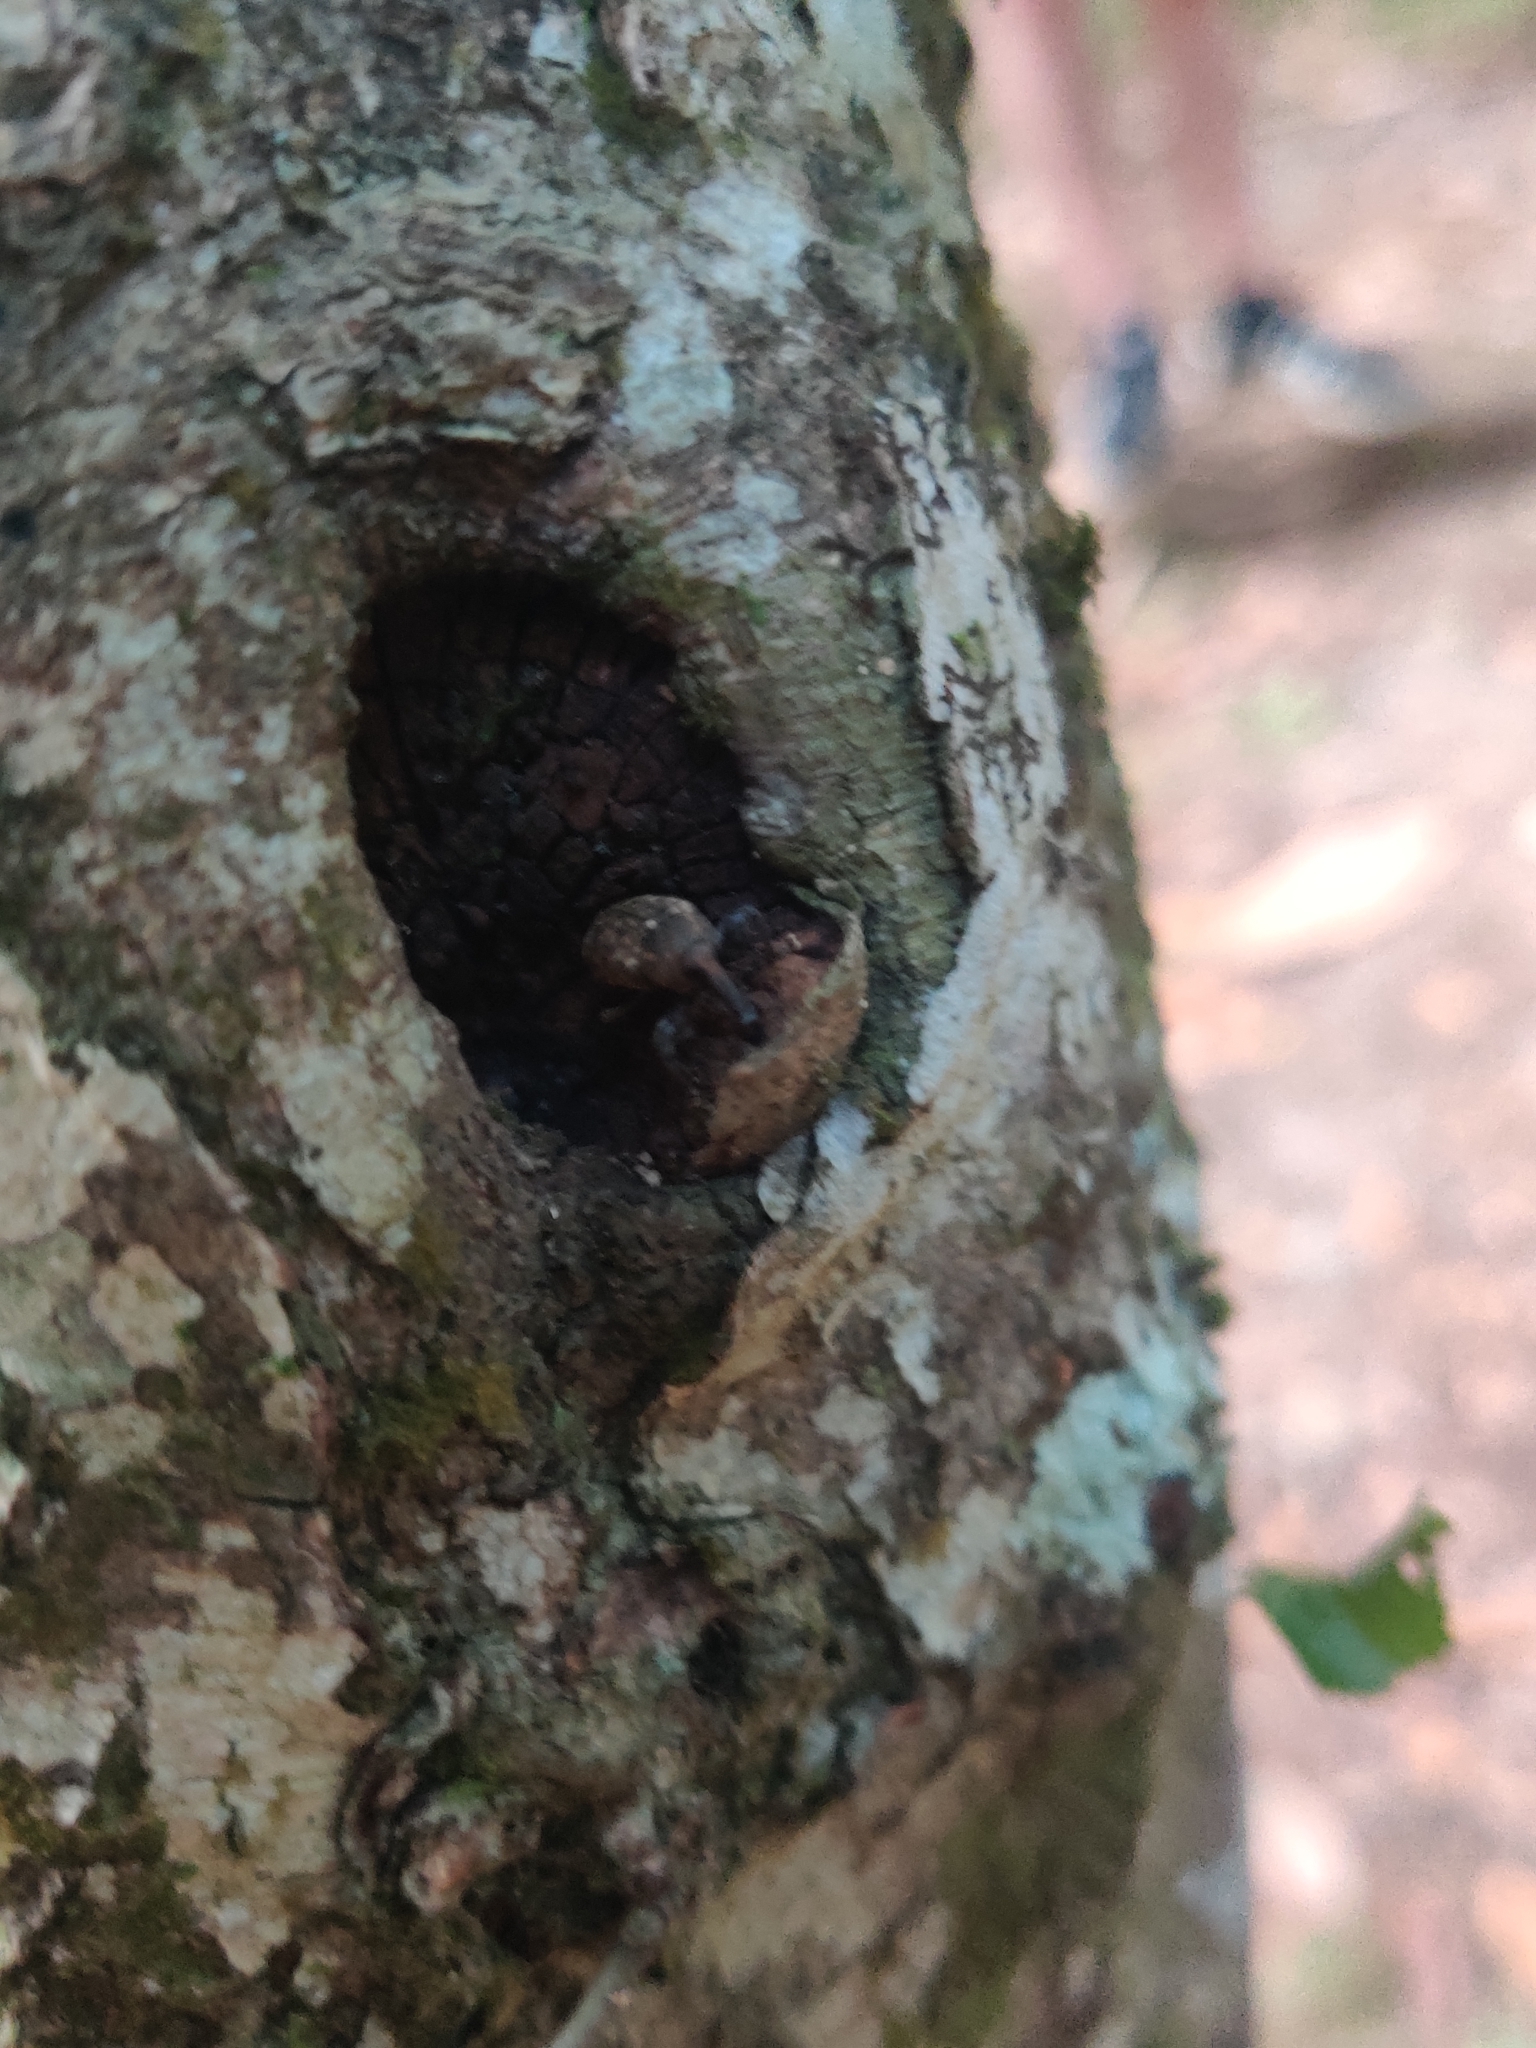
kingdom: Animalia
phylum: Arthropoda
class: Insecta
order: Coleoptera
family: Curculionidae
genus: Hilipinus
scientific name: Hilipinus nearcticus
